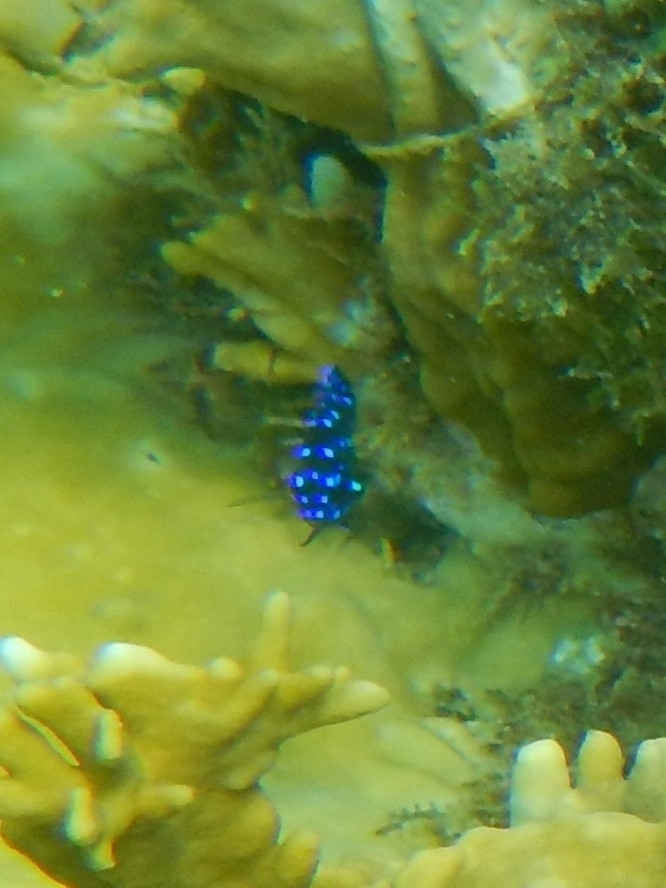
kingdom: Animalia
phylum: Chordata
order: Perciformes
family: Pomacentridae
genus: Microspathodon
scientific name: Microspathodon chrysurus
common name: Yellowtail damselfish
